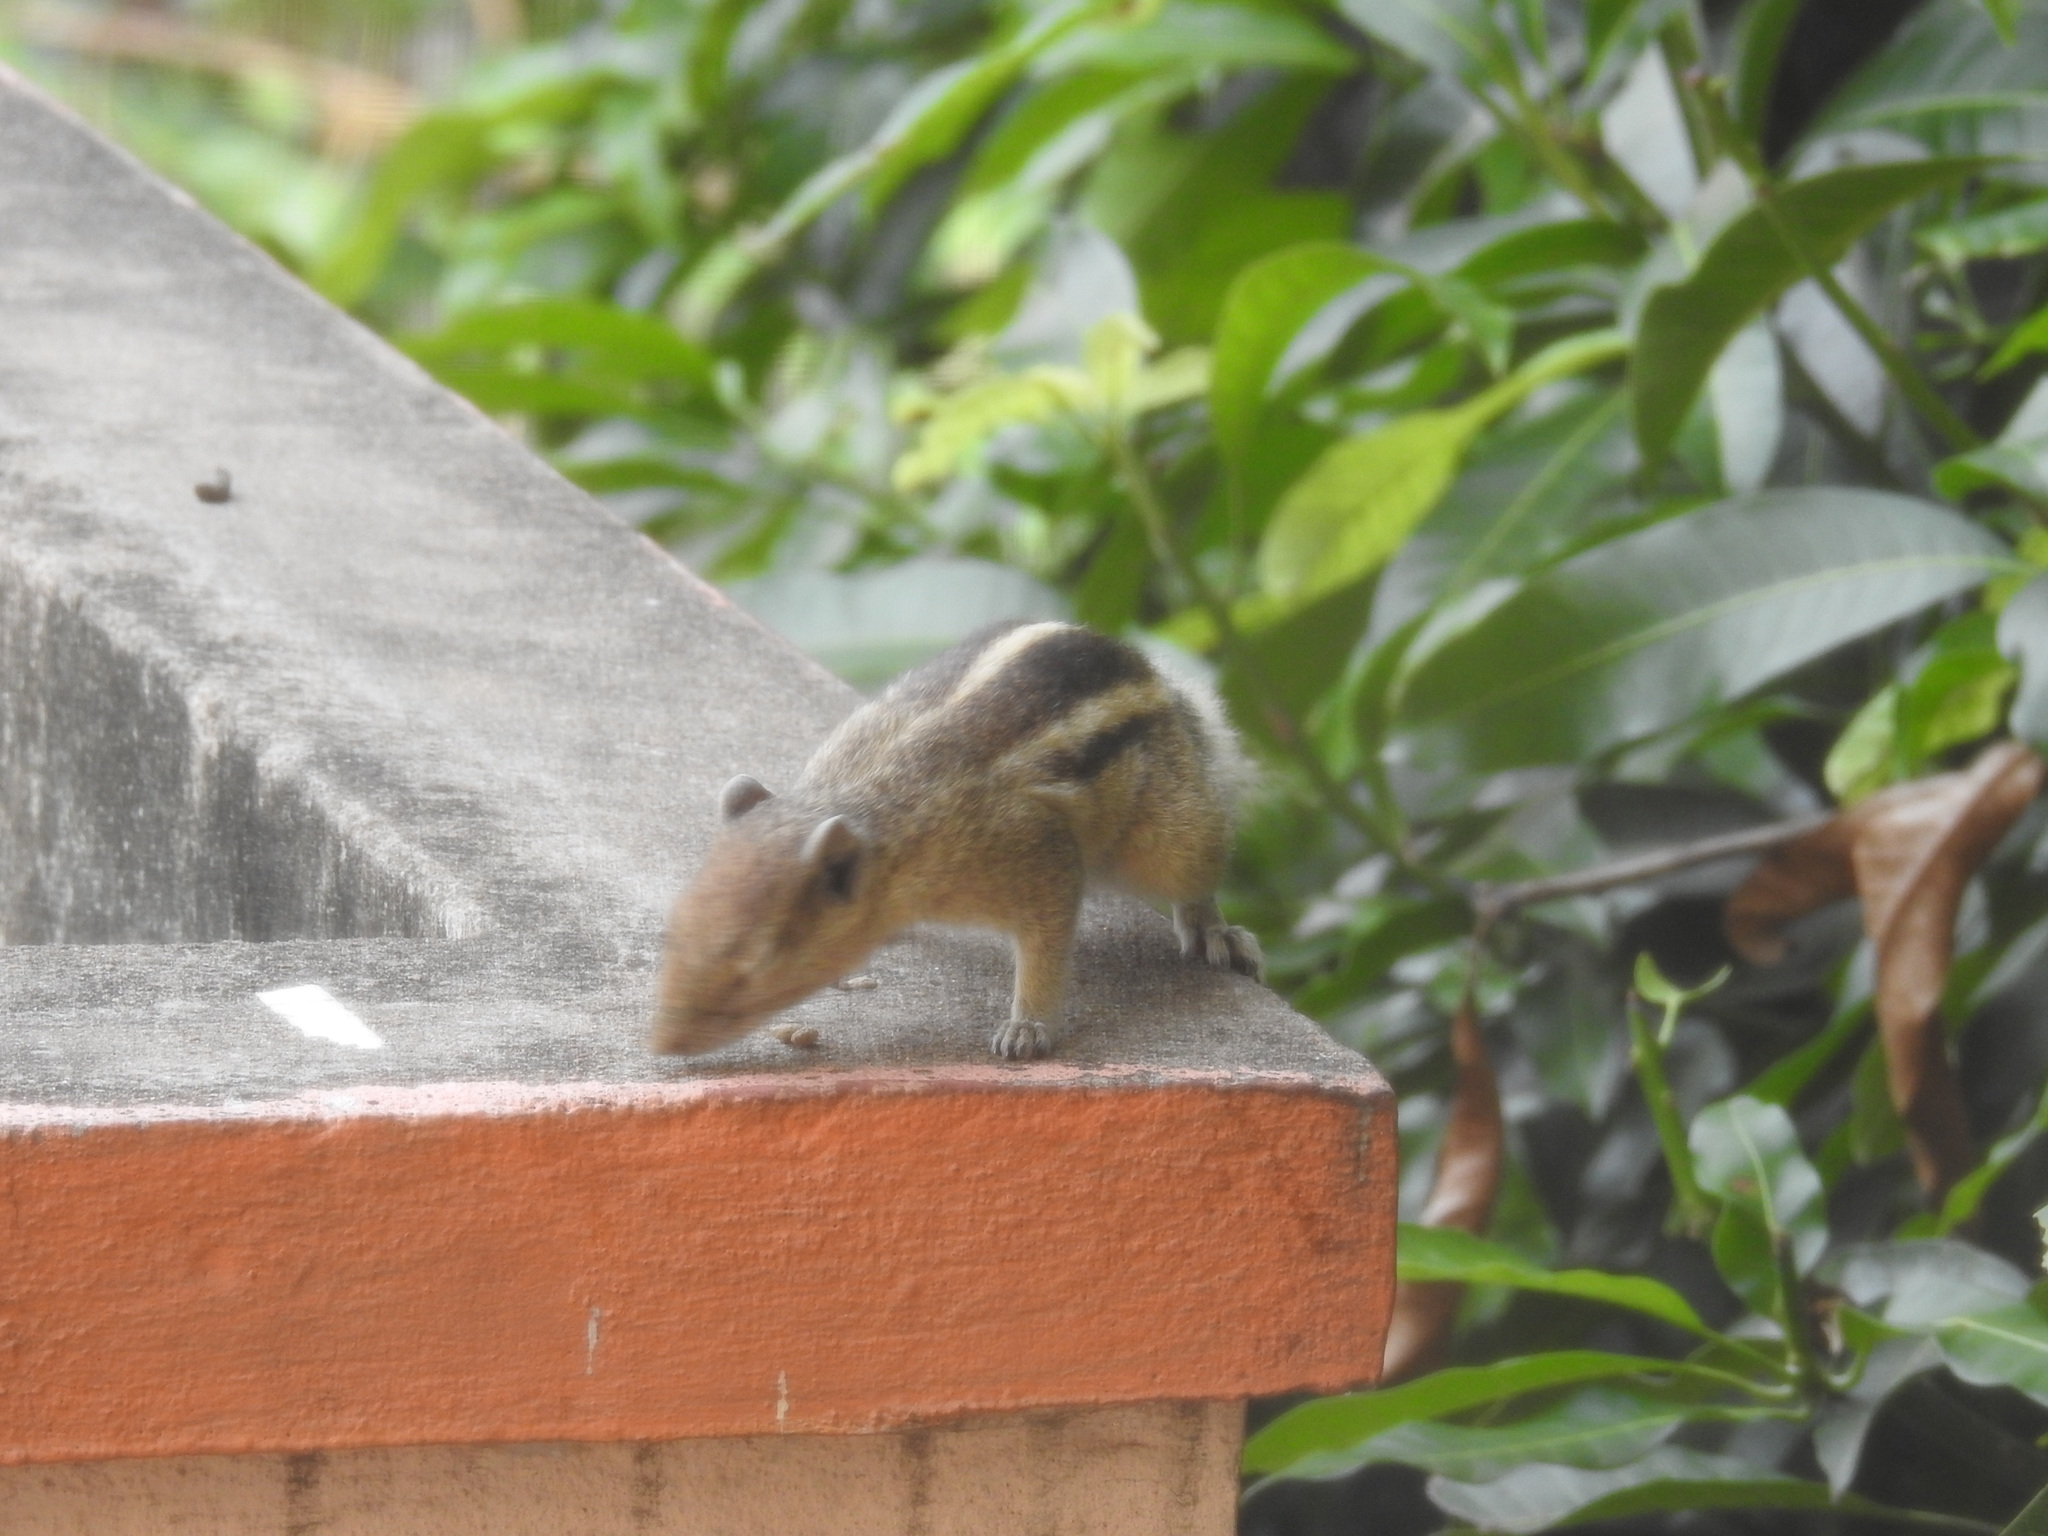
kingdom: Animalia
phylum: Chordata
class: Mammalia
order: Rodentia
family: Sciuridae
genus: Funambulus
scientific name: Funambulus palmarum
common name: Indian palm squirrel
